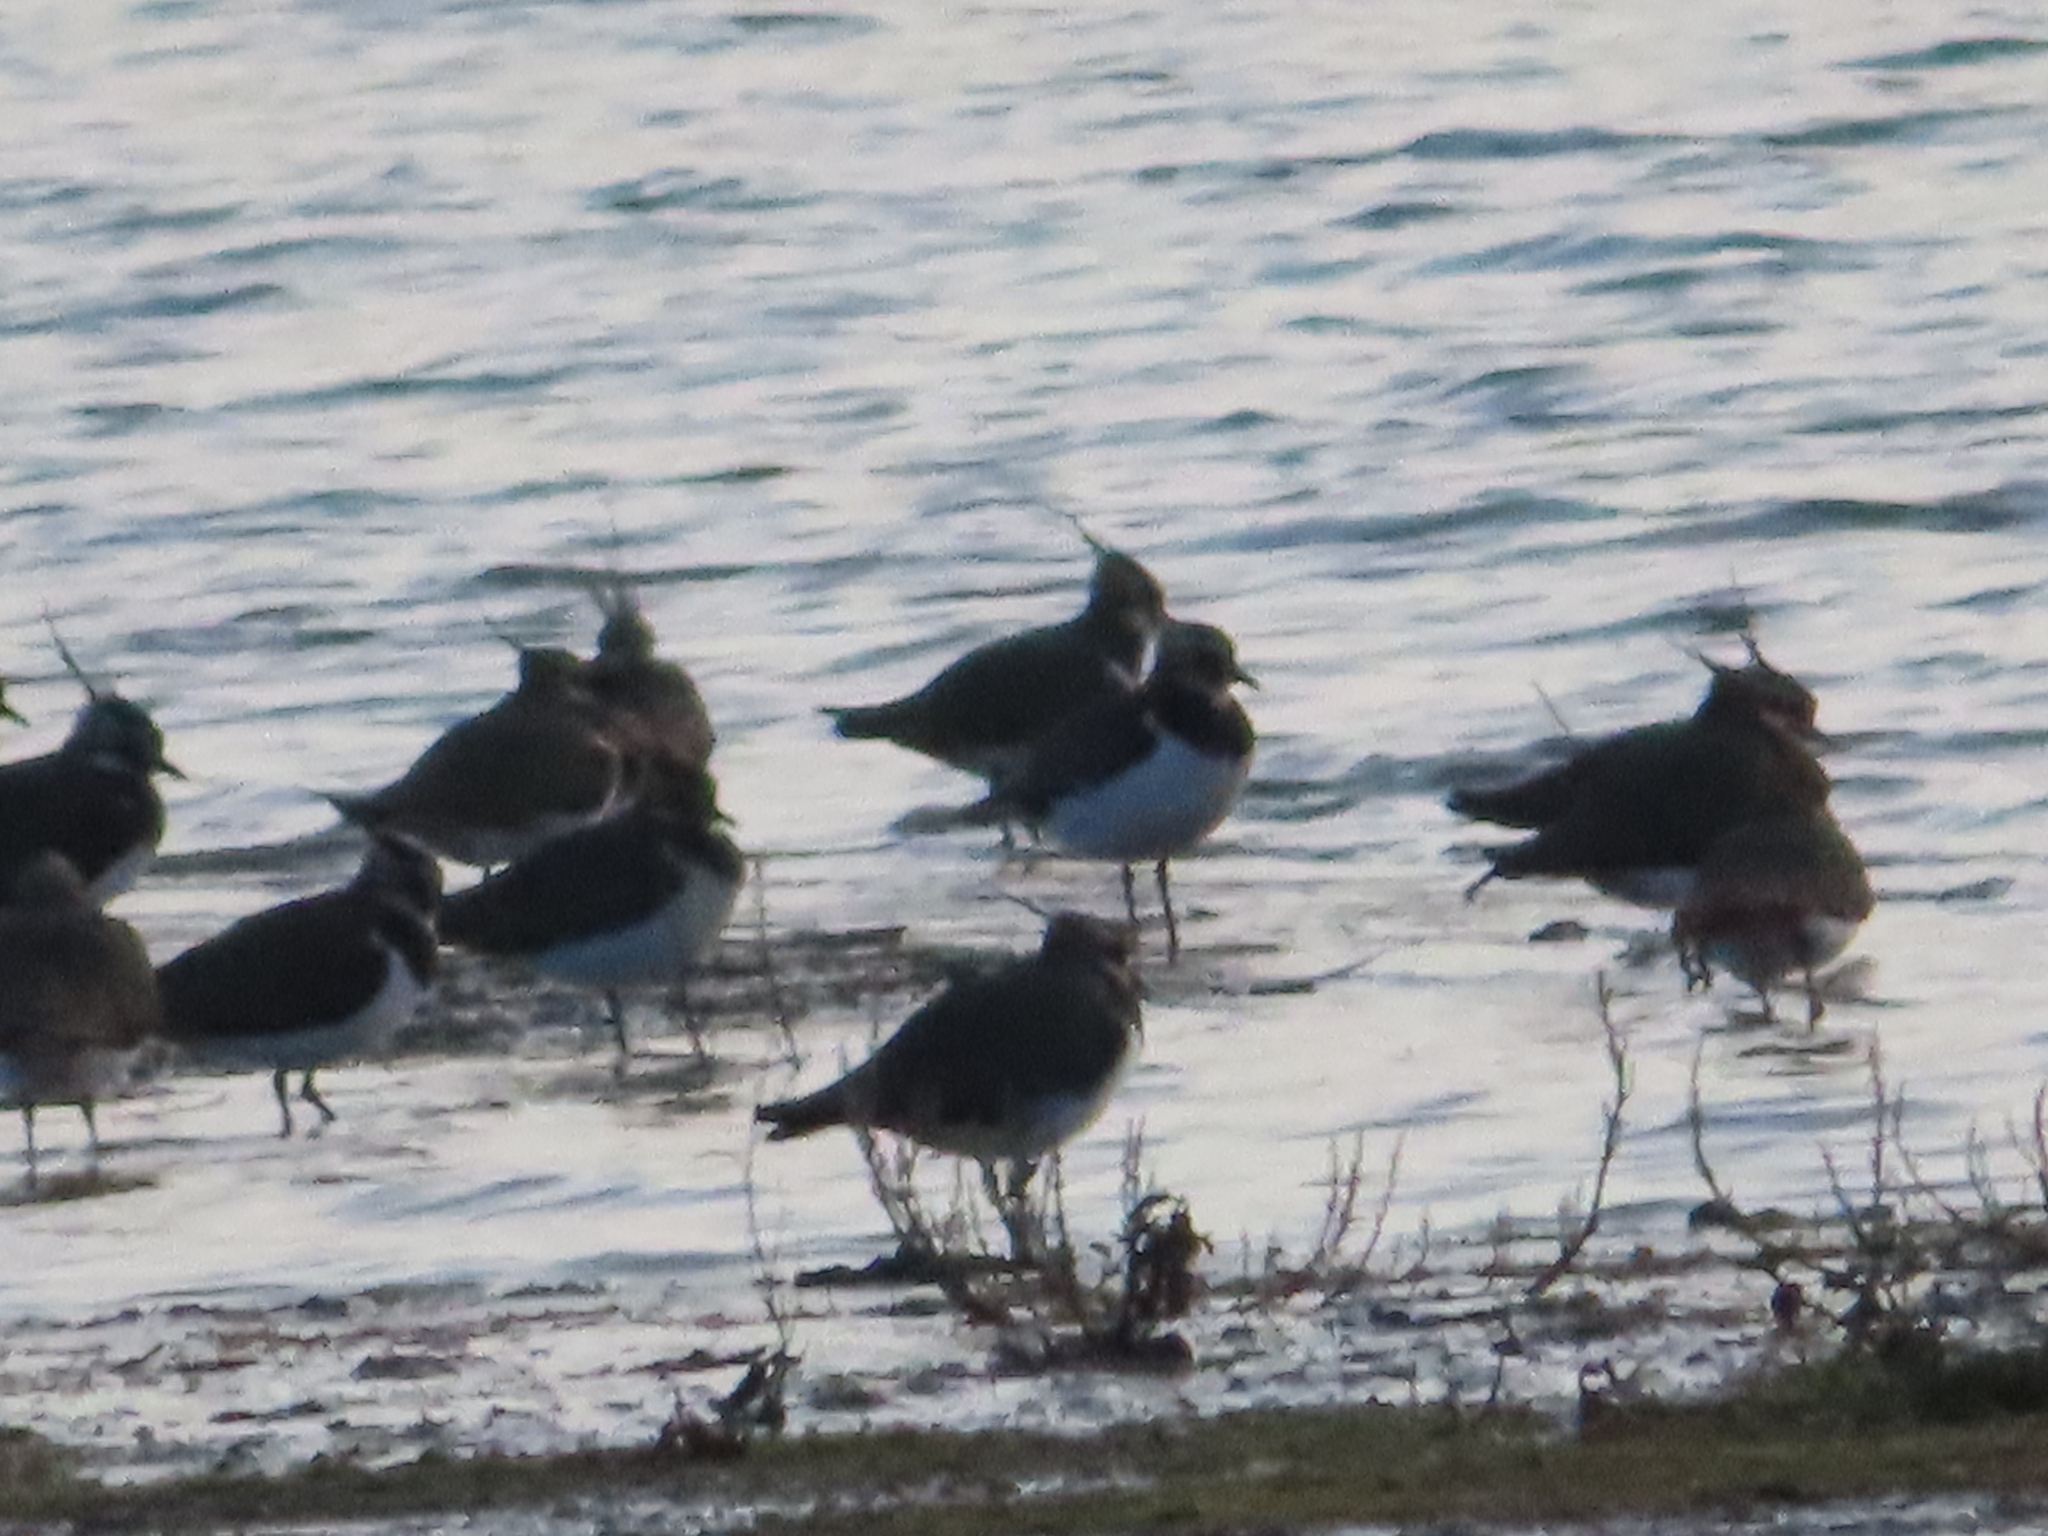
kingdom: Animalia
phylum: Chordata
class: Aves
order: Charadriiformes
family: Charadriidae
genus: Vanellus
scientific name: Vanellus vanellus
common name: Northern lapwing
